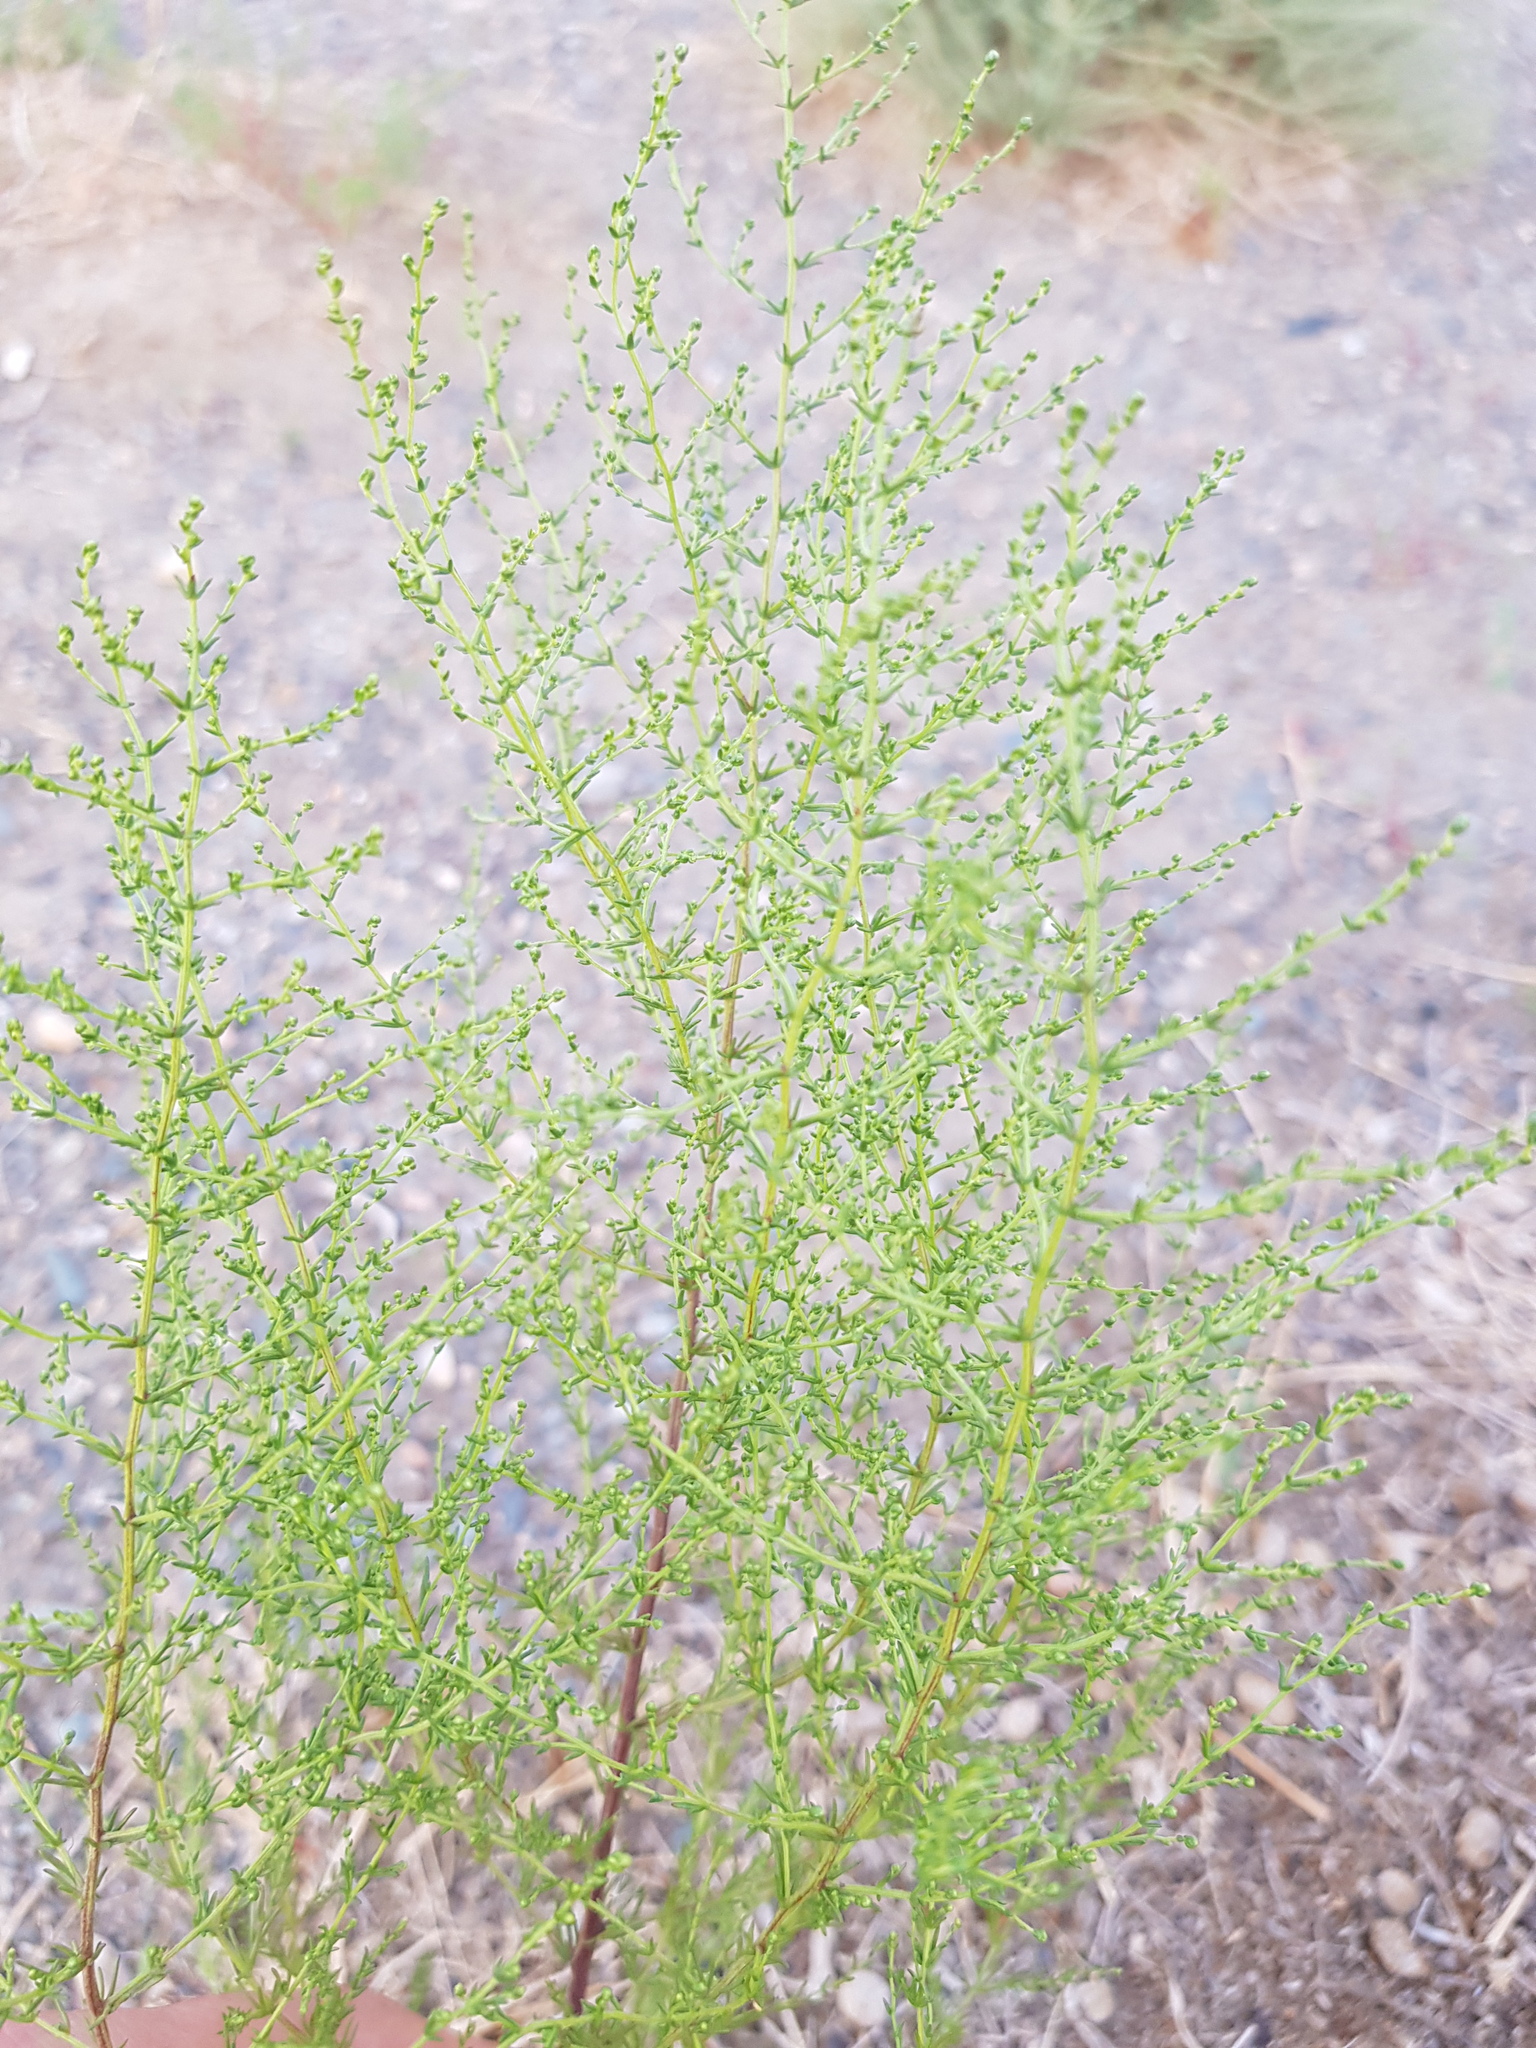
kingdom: Plantae
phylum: Tracheophyta
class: Magnoliopsida
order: Caryophyllales
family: Amaranthaceae
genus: Kalidium
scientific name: Kalidium gracile
